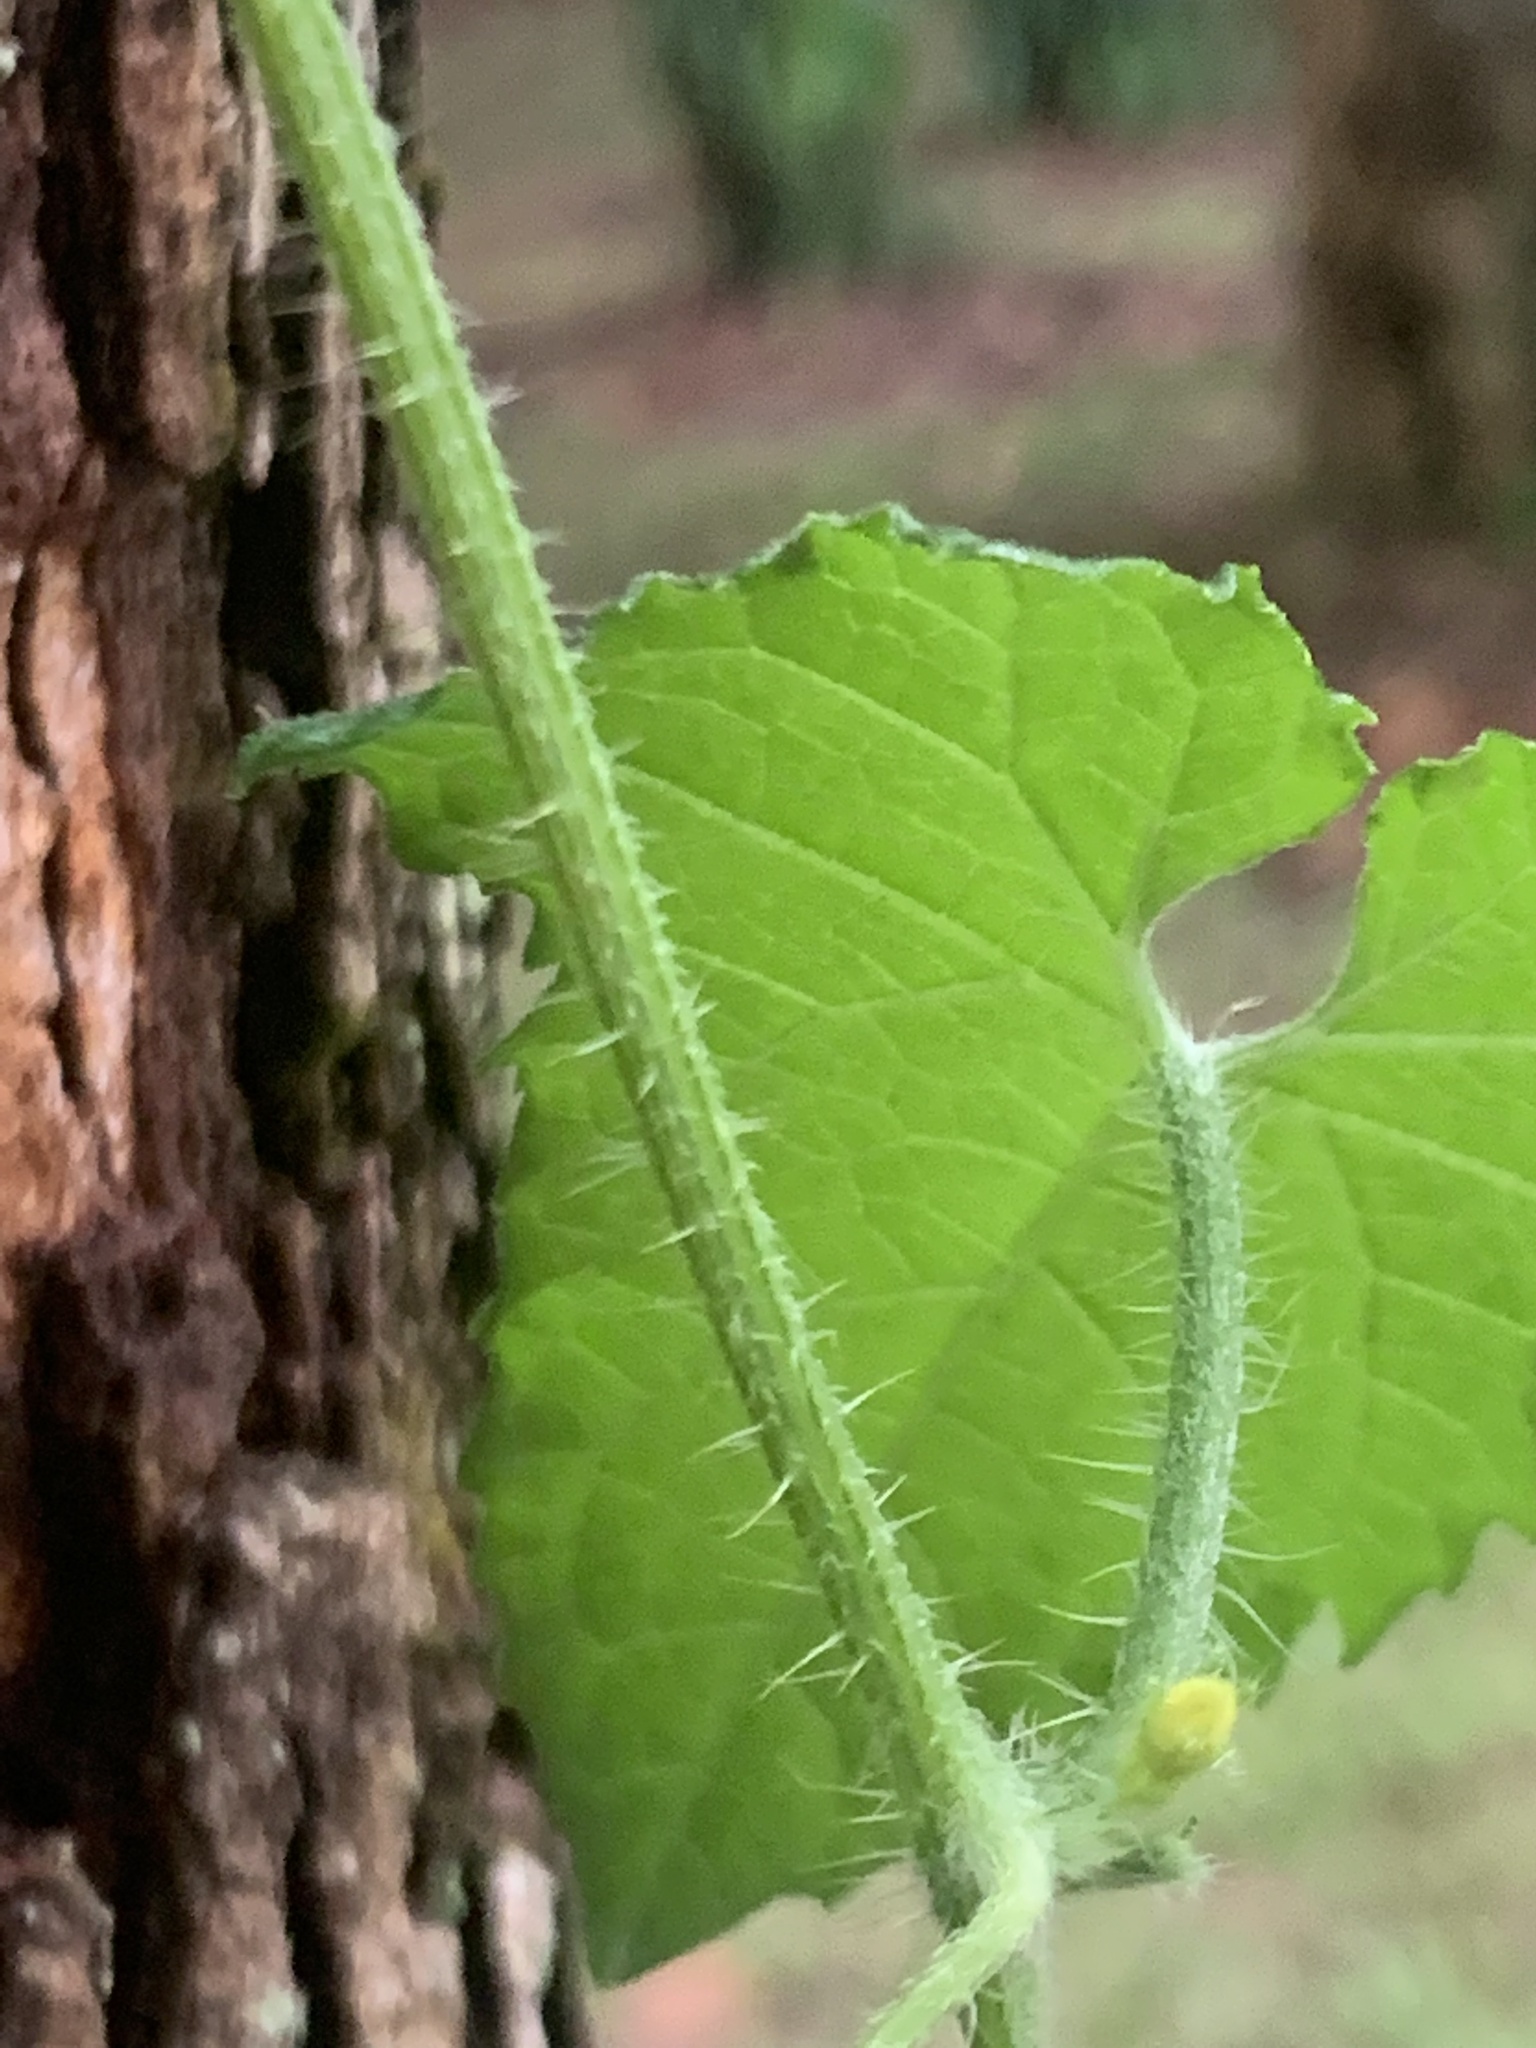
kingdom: Plantae
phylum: Tracheophyta
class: Magnoliopsida
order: Cucurbitales
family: Cucurbitaceae
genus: Cucumis
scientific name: Cucumis maderaspatanus
